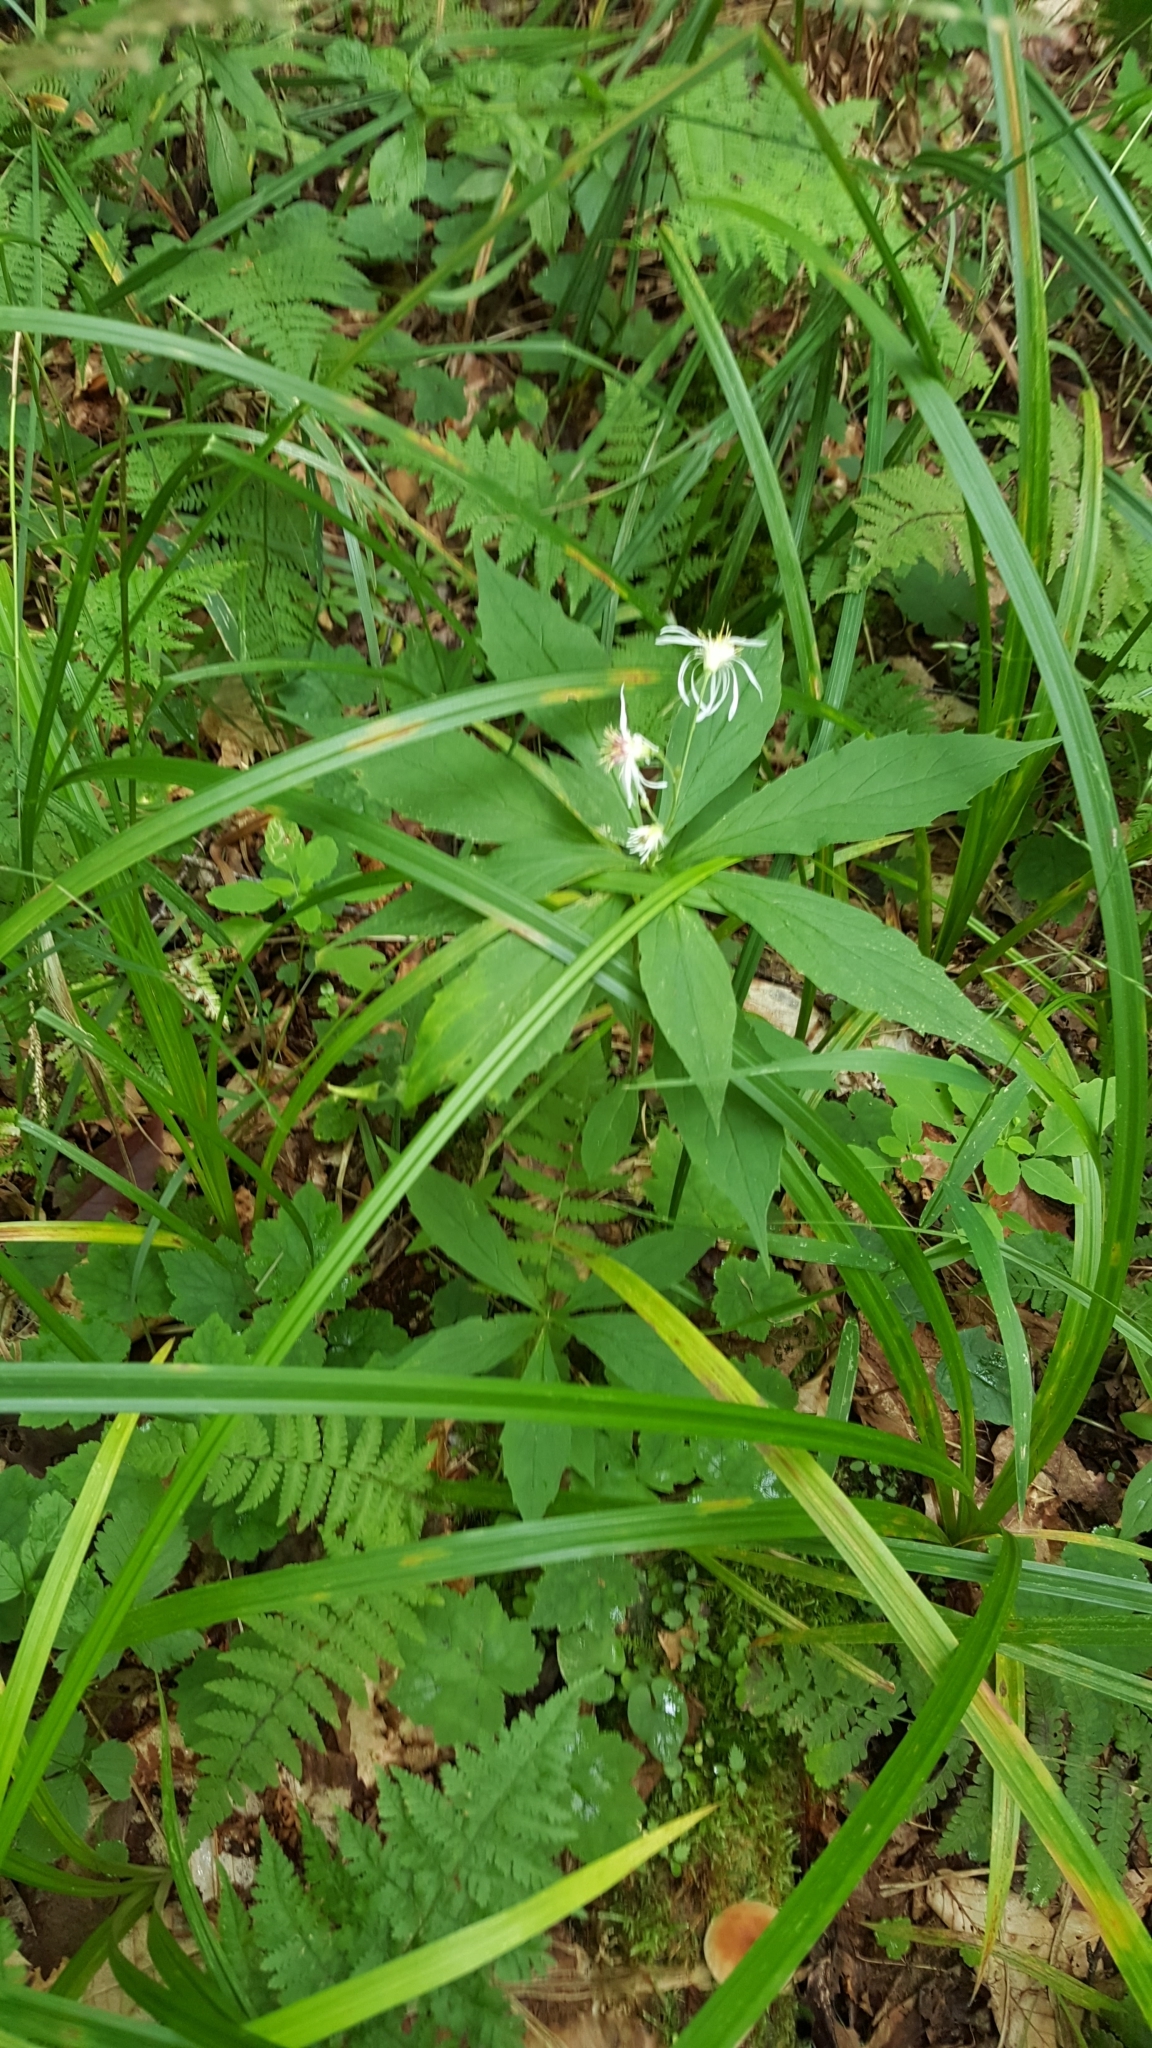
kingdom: Plantae
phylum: Tracheophyta
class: Magnoliopsida
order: Asterales
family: Asteraceae
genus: Oclemena
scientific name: Oclemena acuminata
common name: Mountain aster
